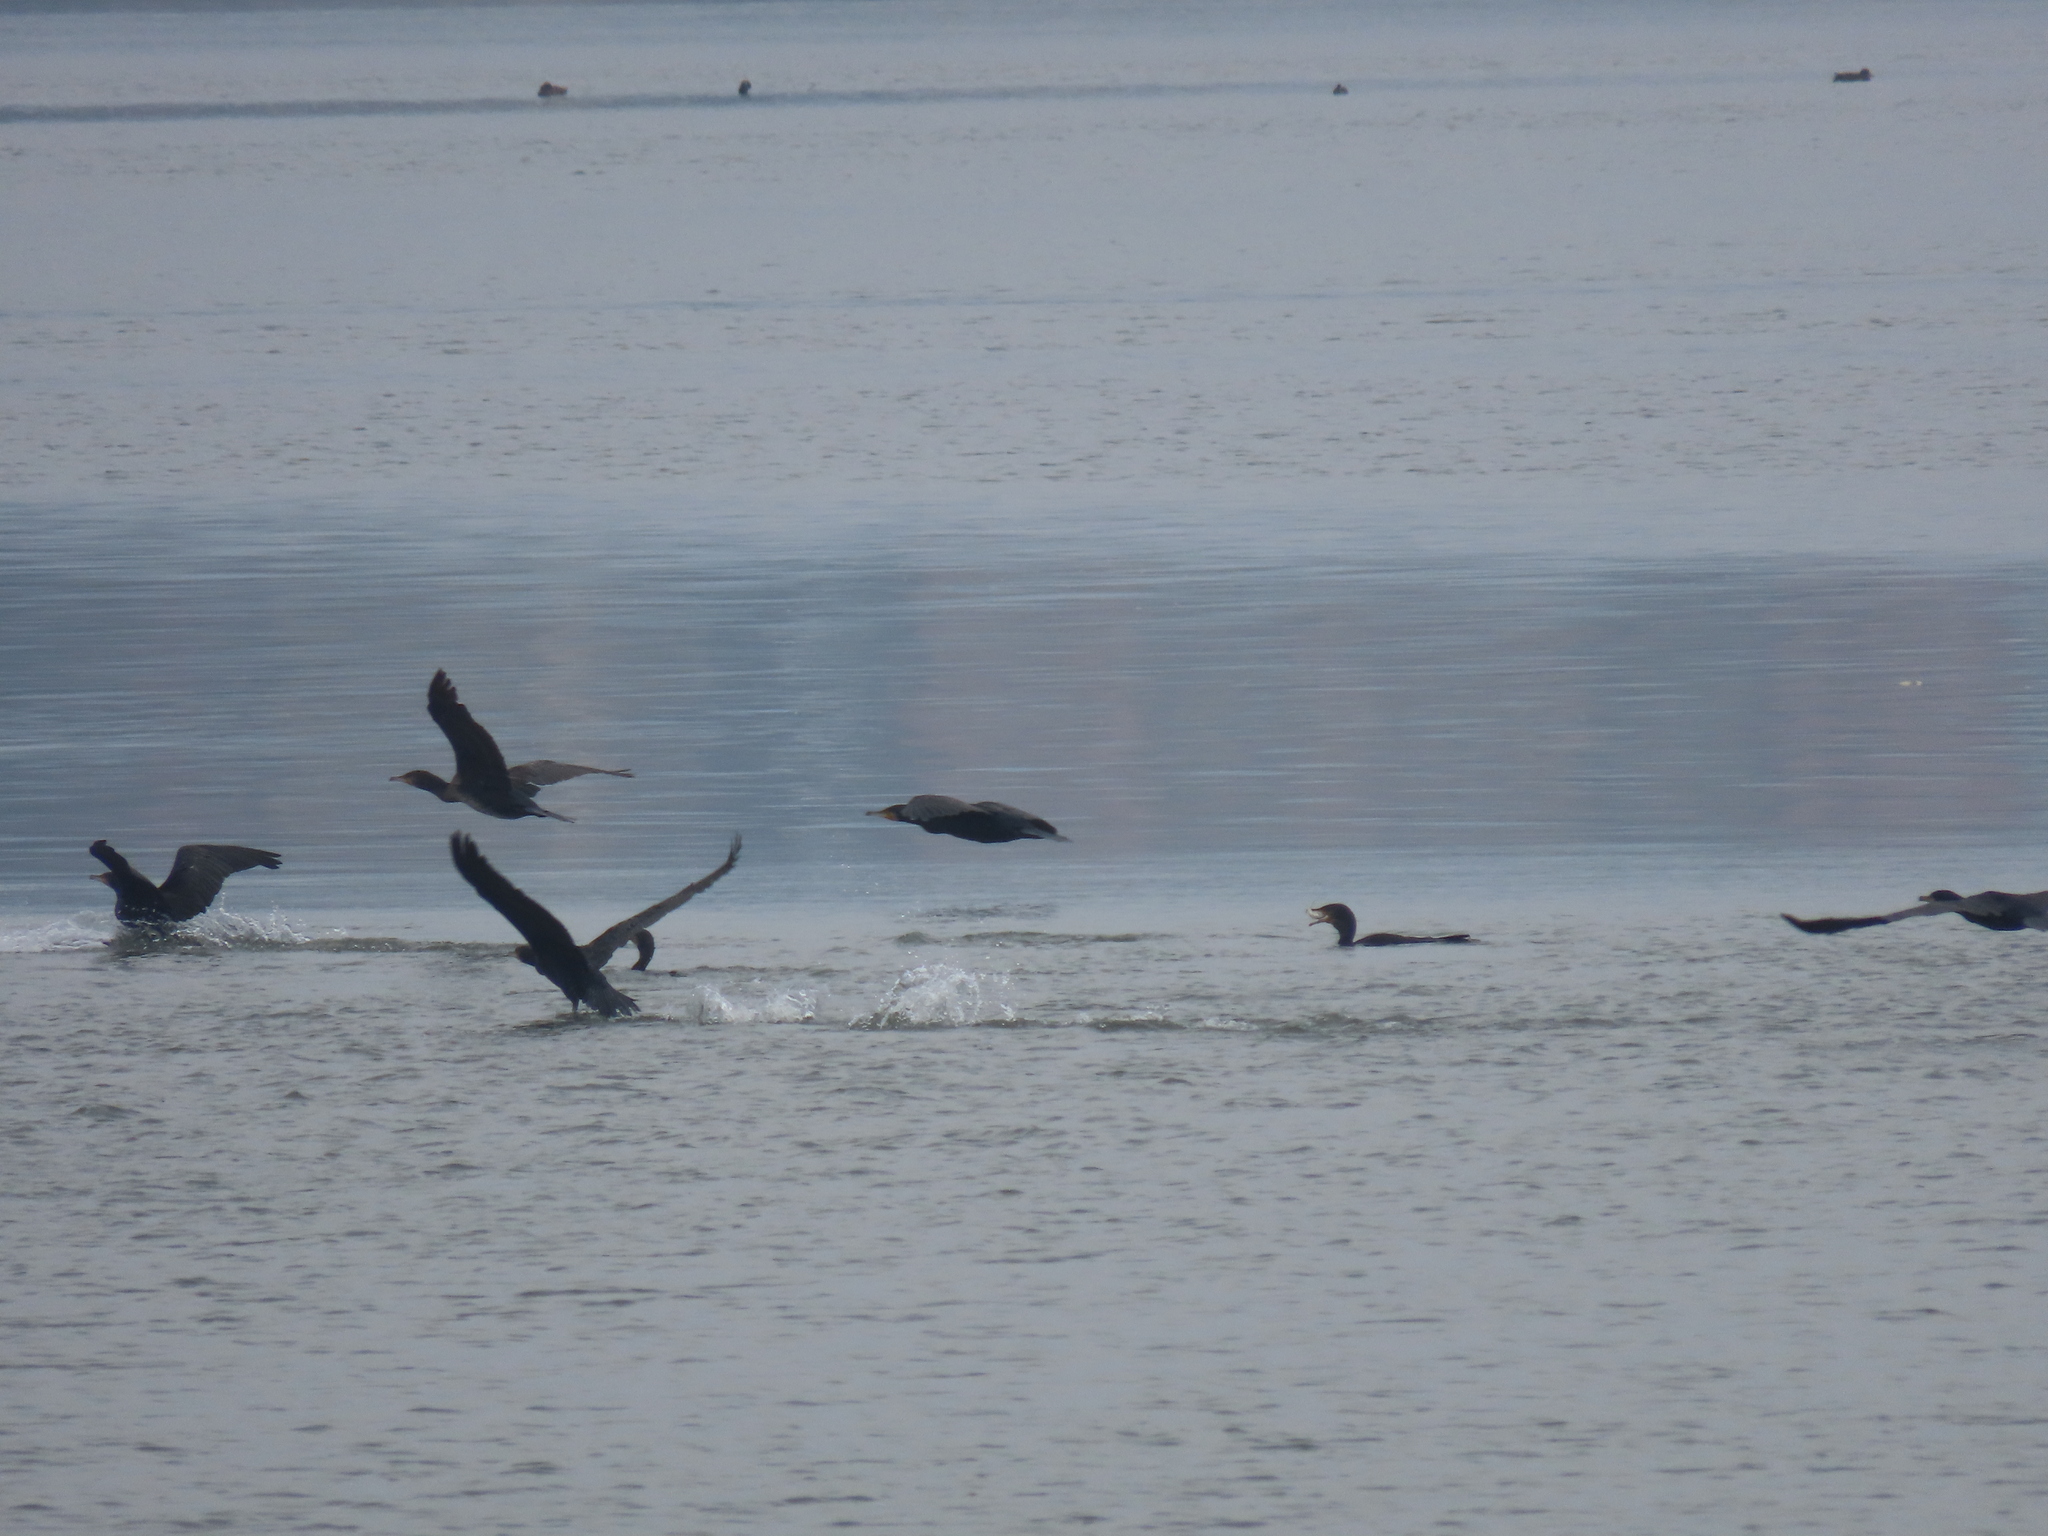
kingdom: Animalia
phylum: Chordata
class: Aves
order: Suliformes
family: Phalacrocoracidae
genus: Phalacrocorax
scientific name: Phalacrocorax carbo
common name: Great cormorant
